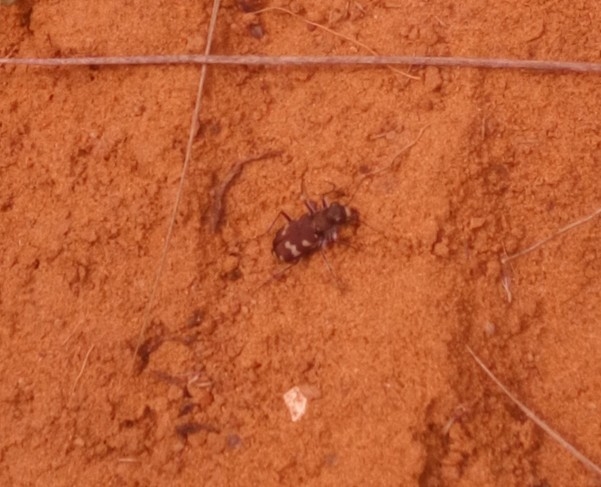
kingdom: Animalia
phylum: Arthropoda
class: Insecta
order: Coleoptera
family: Carabidae
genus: Cicindela
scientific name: Cicindela hybrida
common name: Northern dune tiger beetle
